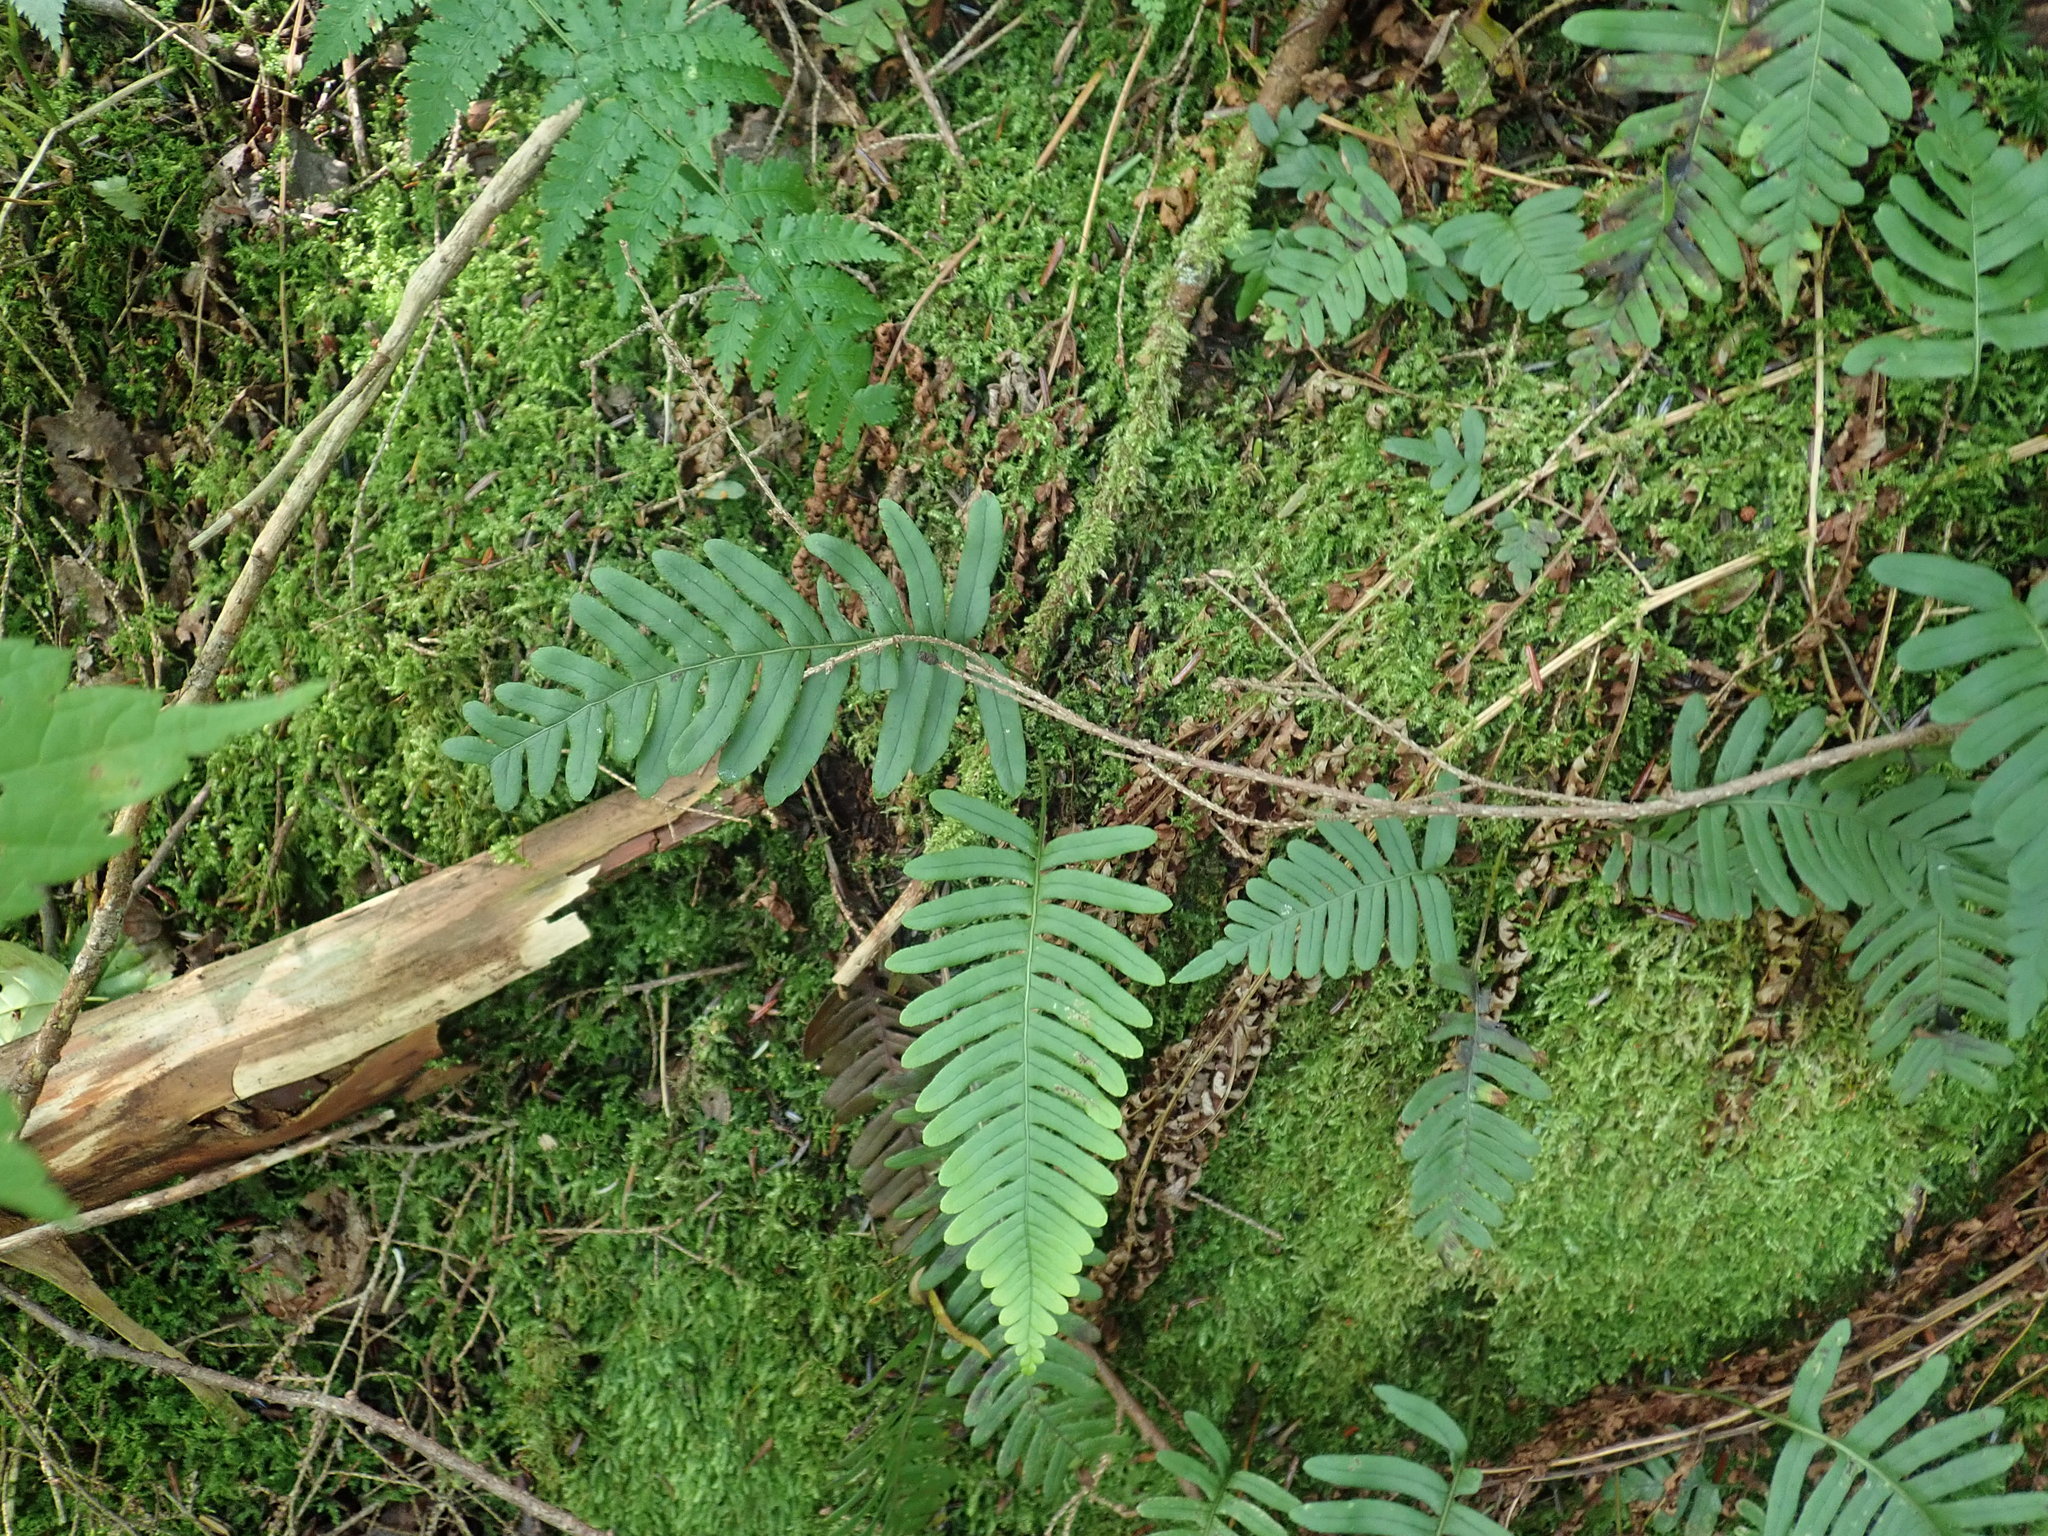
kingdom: Plantae
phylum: Tracheophyta
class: Polypodiopsida
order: Polypodiales
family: Polypodiaceae
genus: Polypodium
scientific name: Polypodium
